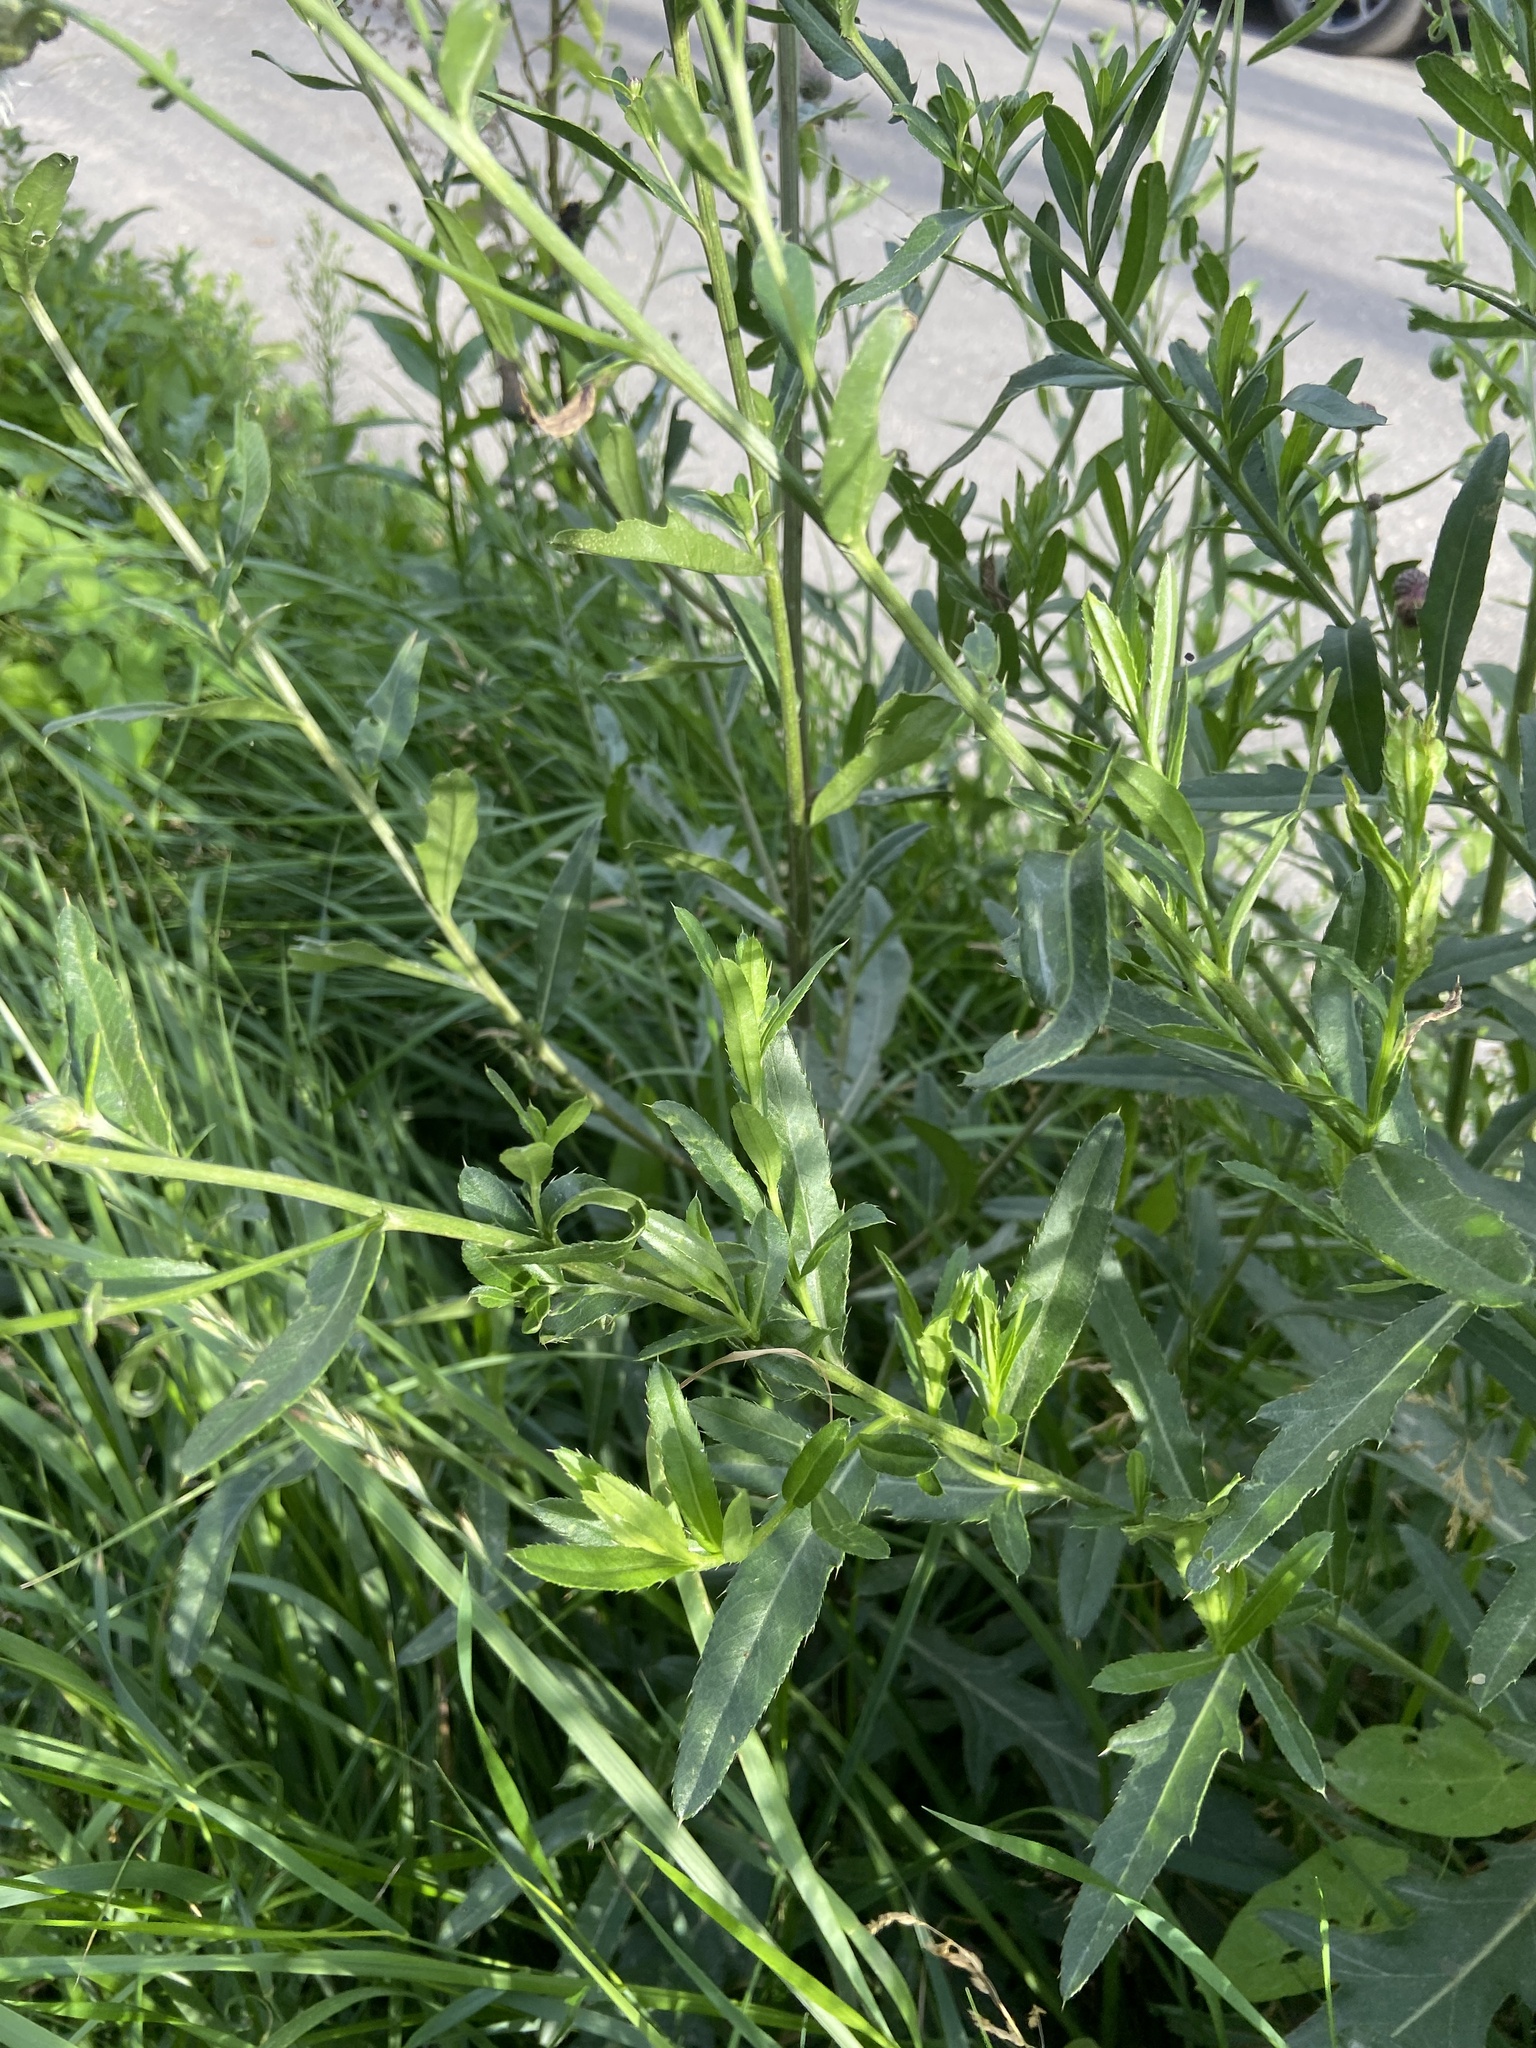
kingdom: Plantae
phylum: Tracheophyta
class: Magnoliopsida
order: Asterales
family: Asteraceae
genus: Cirsium
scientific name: Cirsium arvense
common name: Creeping thistle
